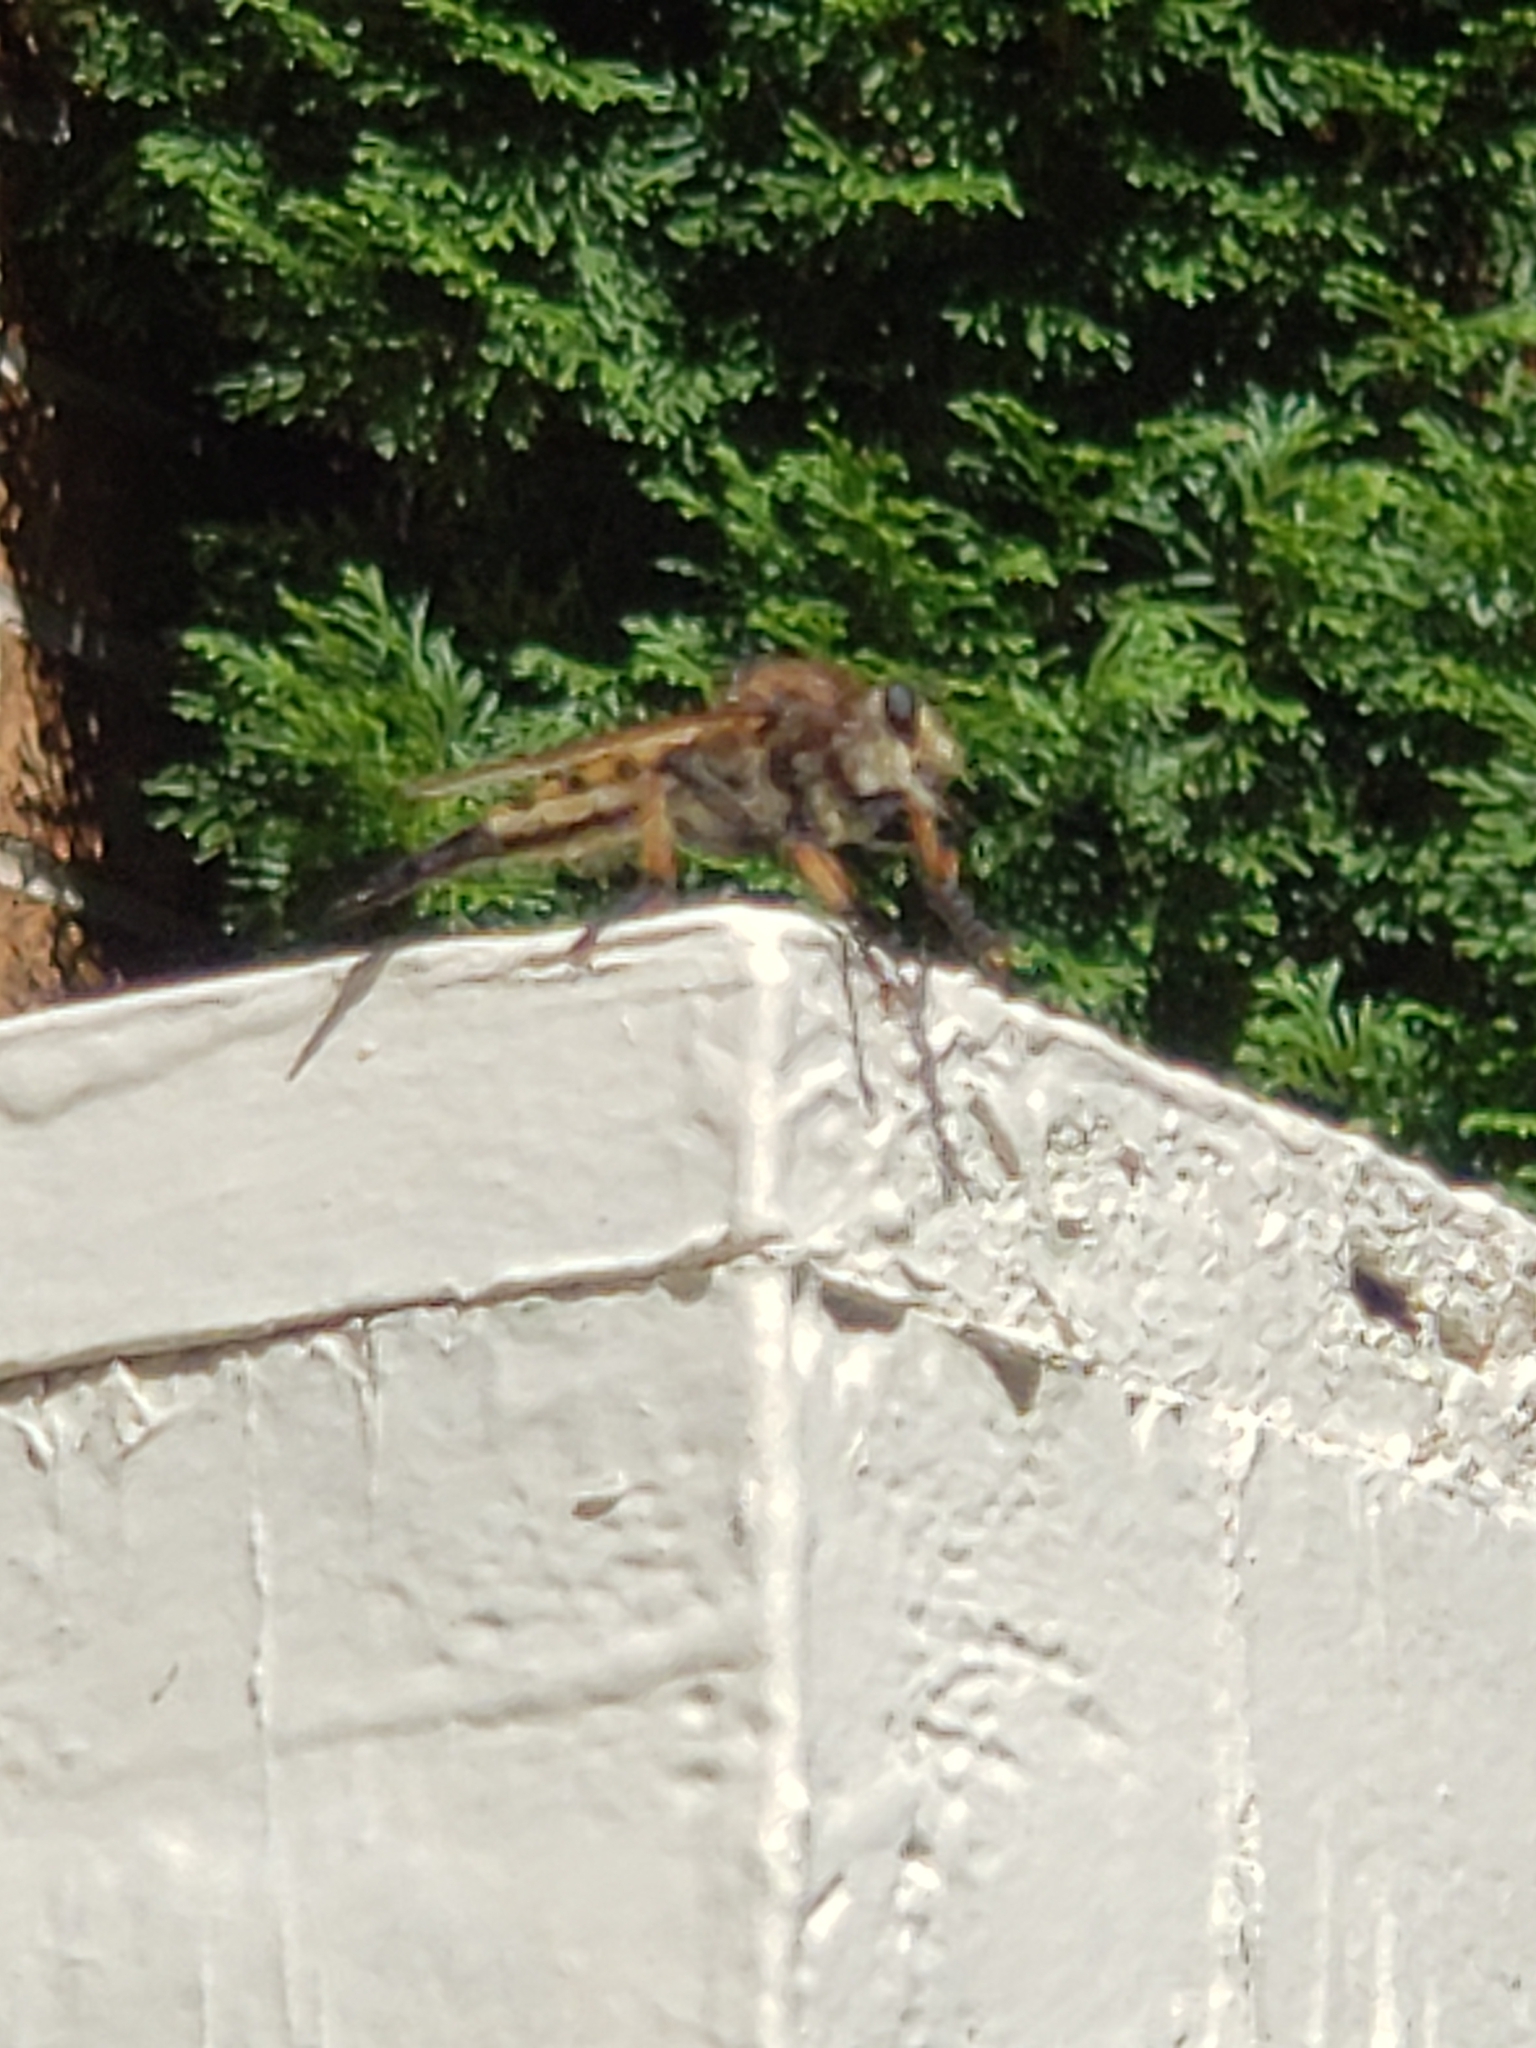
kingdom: Animalia
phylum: Arthropoda
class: Insecta
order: Diptera
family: Asilidae
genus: Promachus
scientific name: Promachus rufipes
